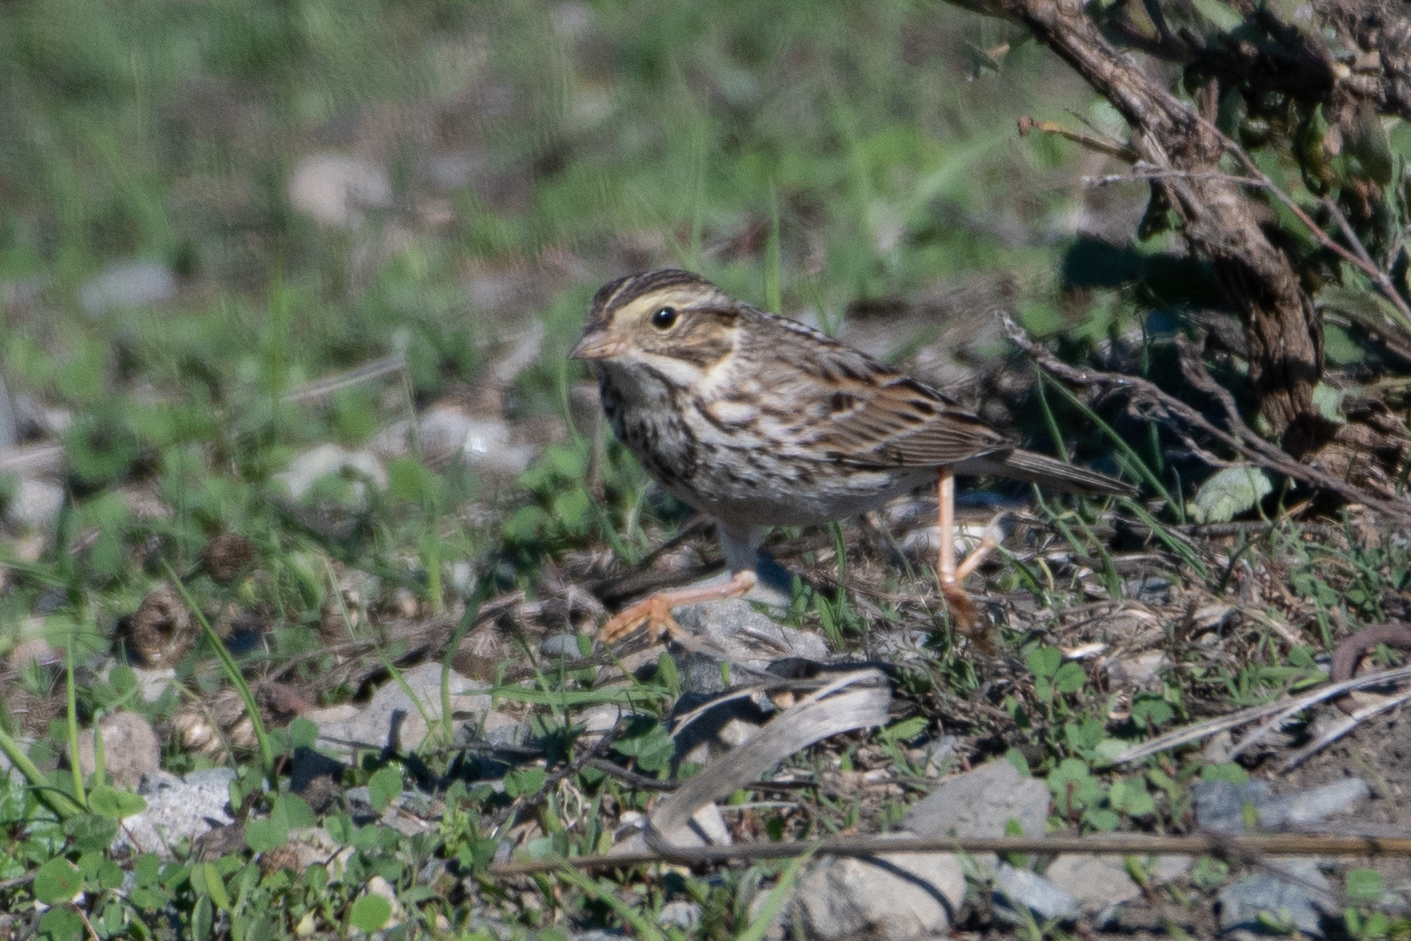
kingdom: Animalia
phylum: Chordata
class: Aves
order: Passeriformes
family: Passerellidae
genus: Passerculus
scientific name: Passerculus sandwichensis
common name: Savannah sparrow
